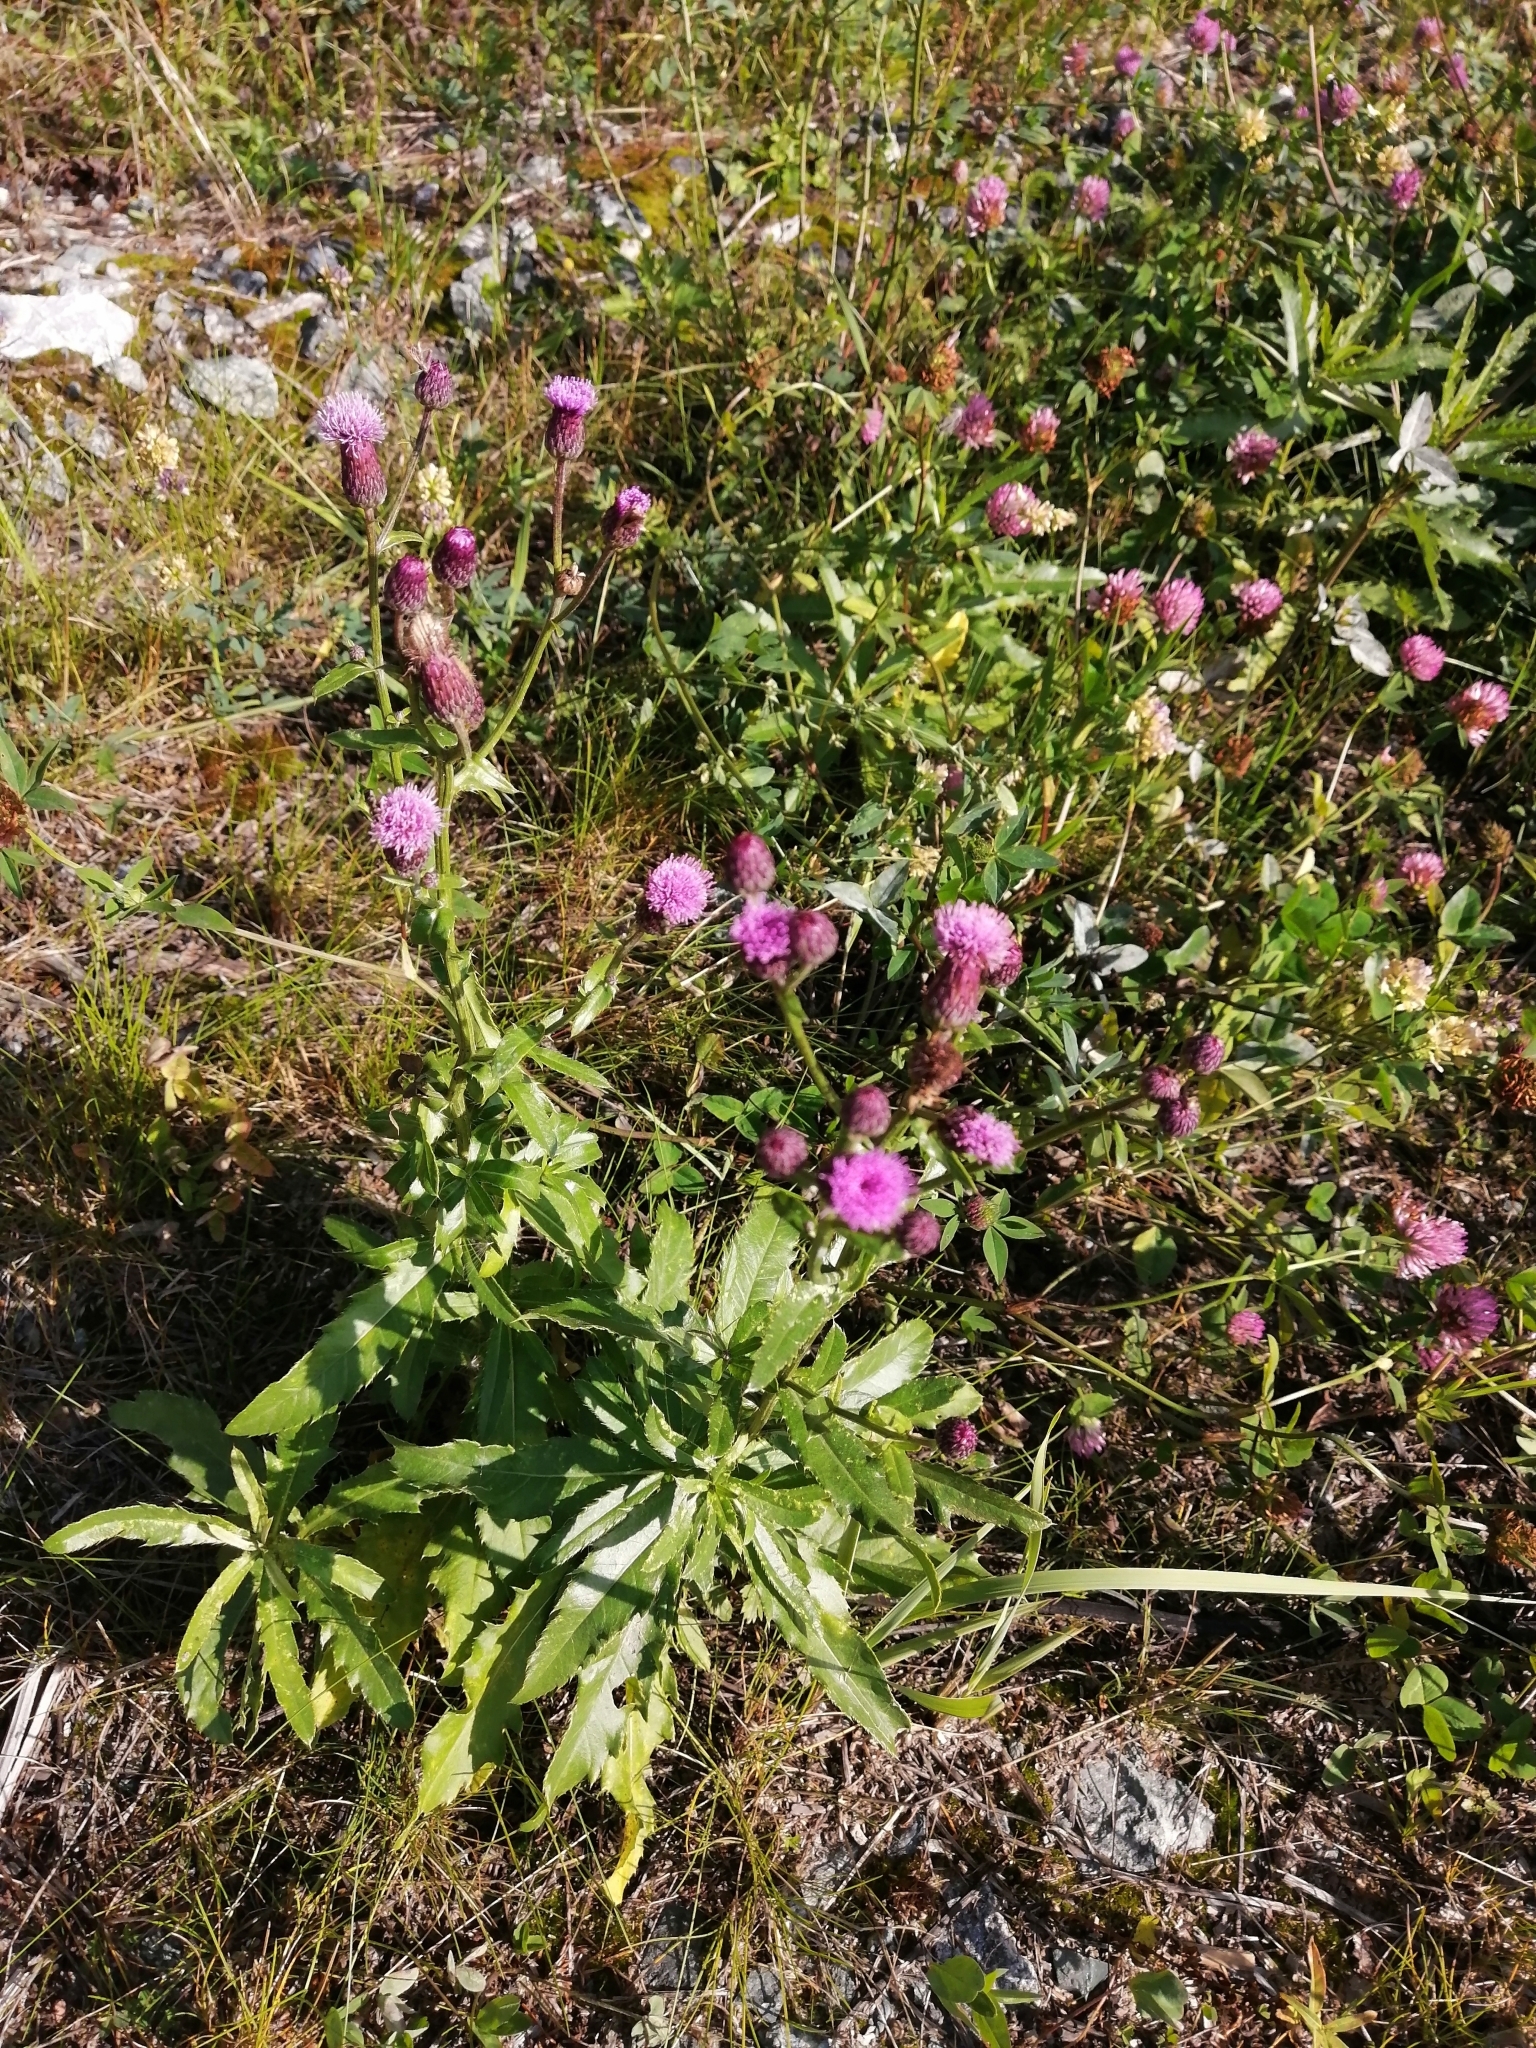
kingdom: Plantae
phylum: Tracheophyta
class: Magnoliopsida
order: Asterales
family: Asteraceae
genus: Cirsium
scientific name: Cirsium arvense
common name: Creeping thistle
